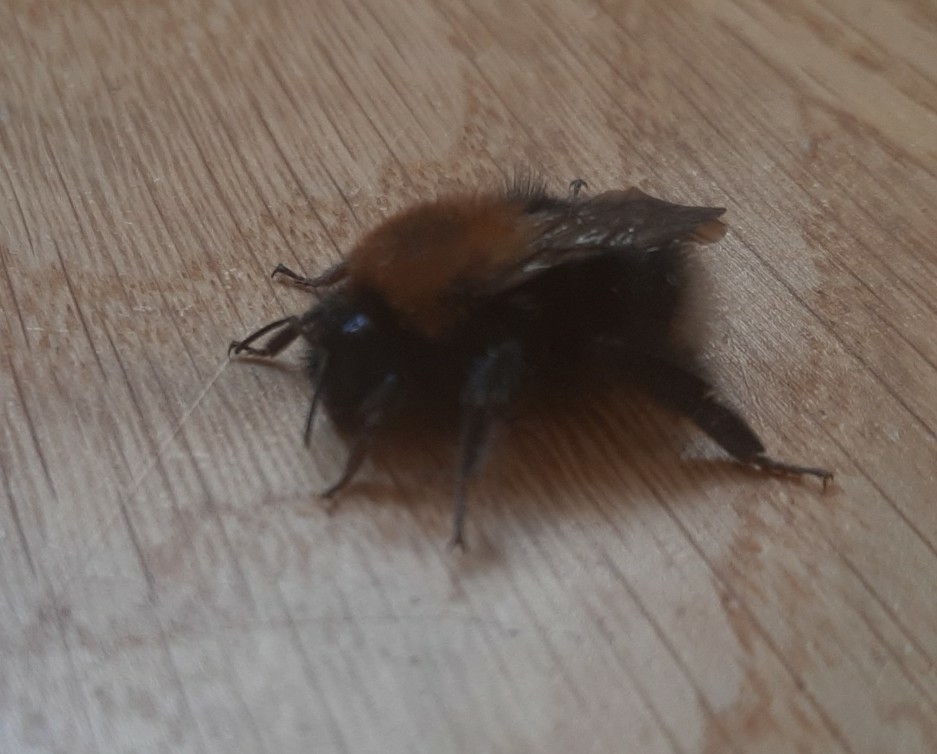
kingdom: Animalia
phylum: Arthropoda
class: Insecta
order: Hymenoptera
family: Apidae
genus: Bombus
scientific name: Bombus hypnorum
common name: New garden bumblebee
